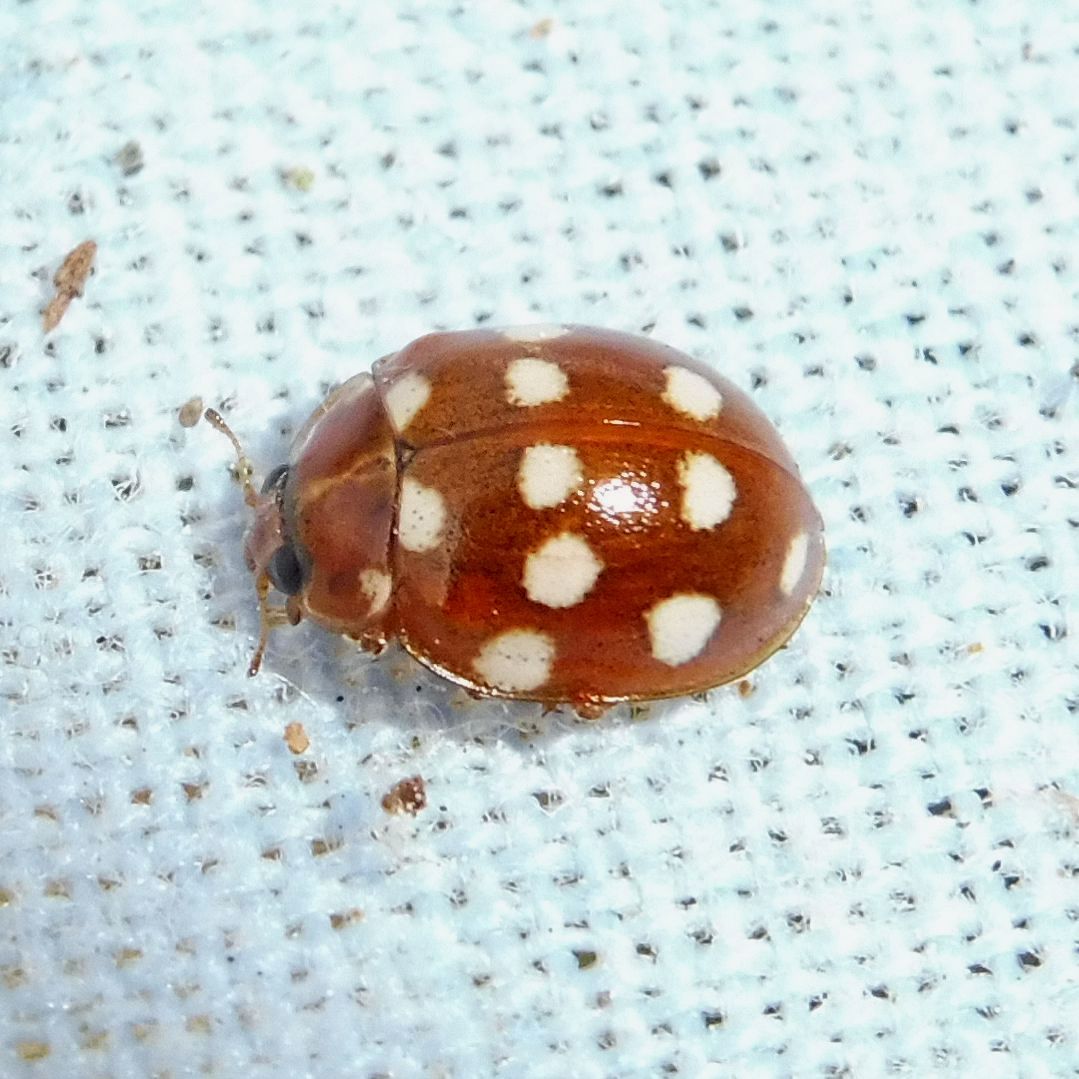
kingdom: Animalia
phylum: Arthropoda
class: Insecta
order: Coleoptera
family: Coccinellidae
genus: Calvia
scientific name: Calvia quatuordecimguttata
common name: Cream-spot ladybird
